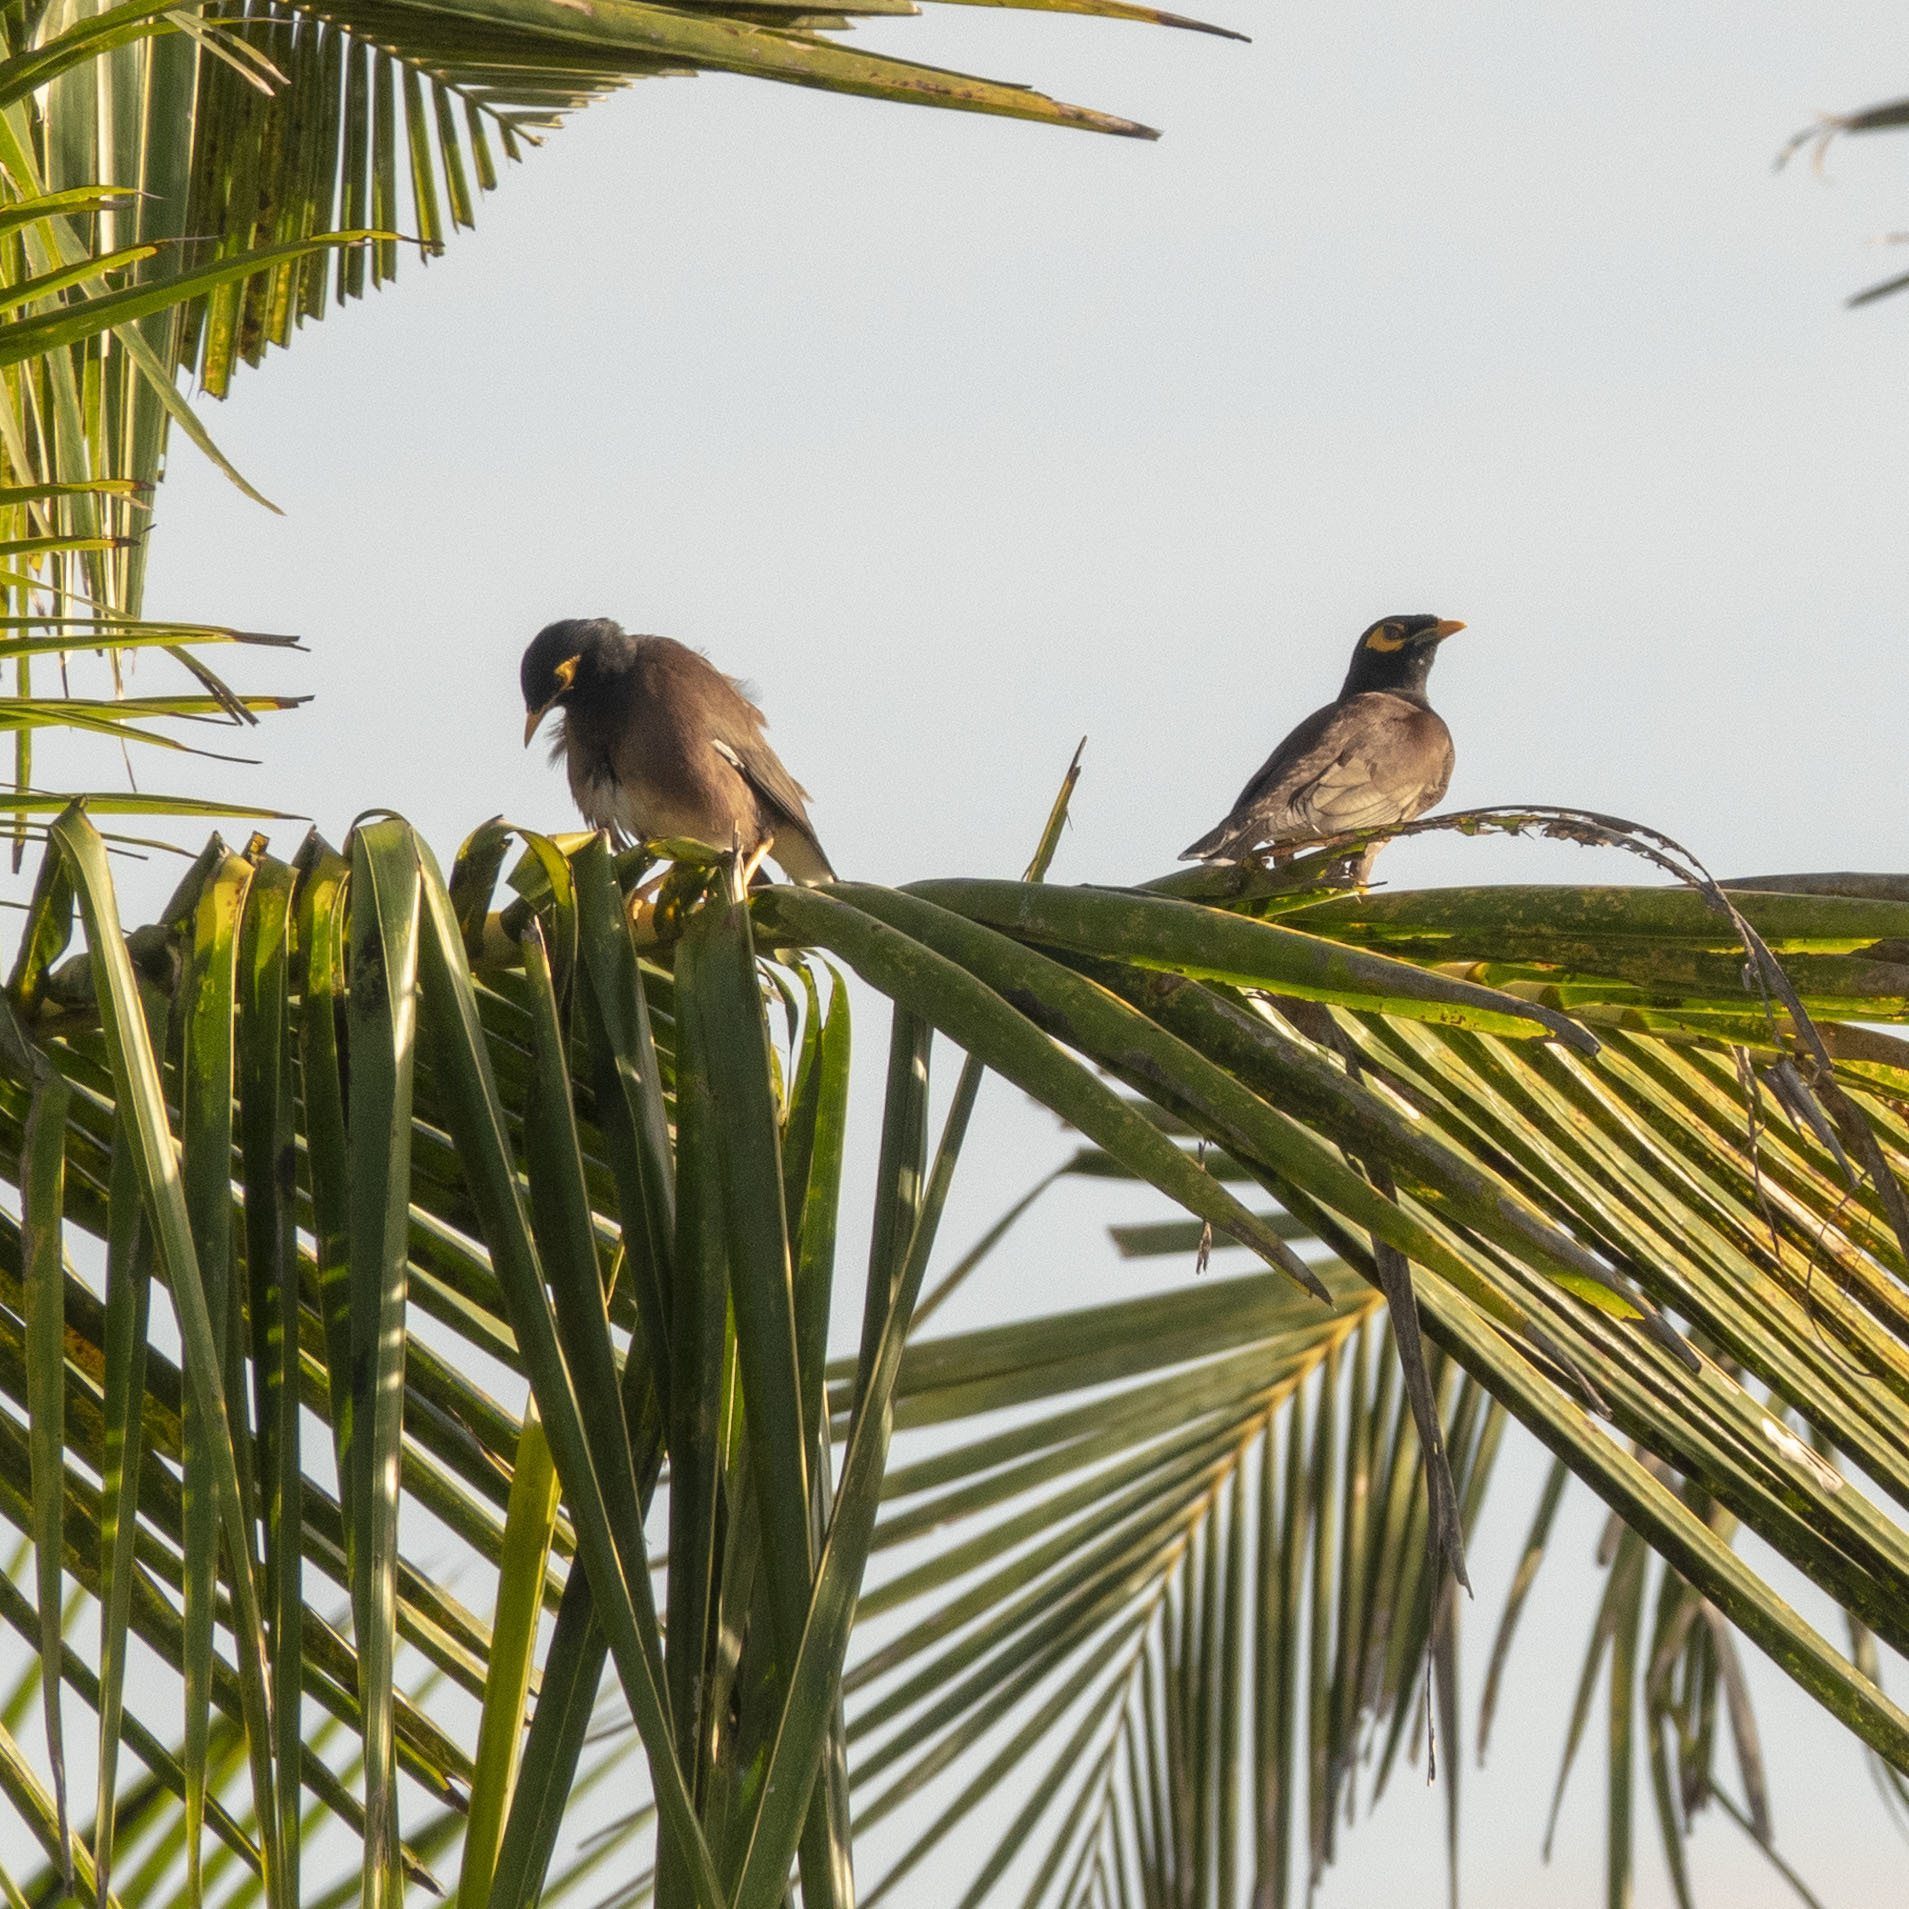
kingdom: Animalia
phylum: Chordata
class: Aves
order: Passeriformes
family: Sturnidae
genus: Acridotheres
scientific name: Acridotheres tristis
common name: Common myna
